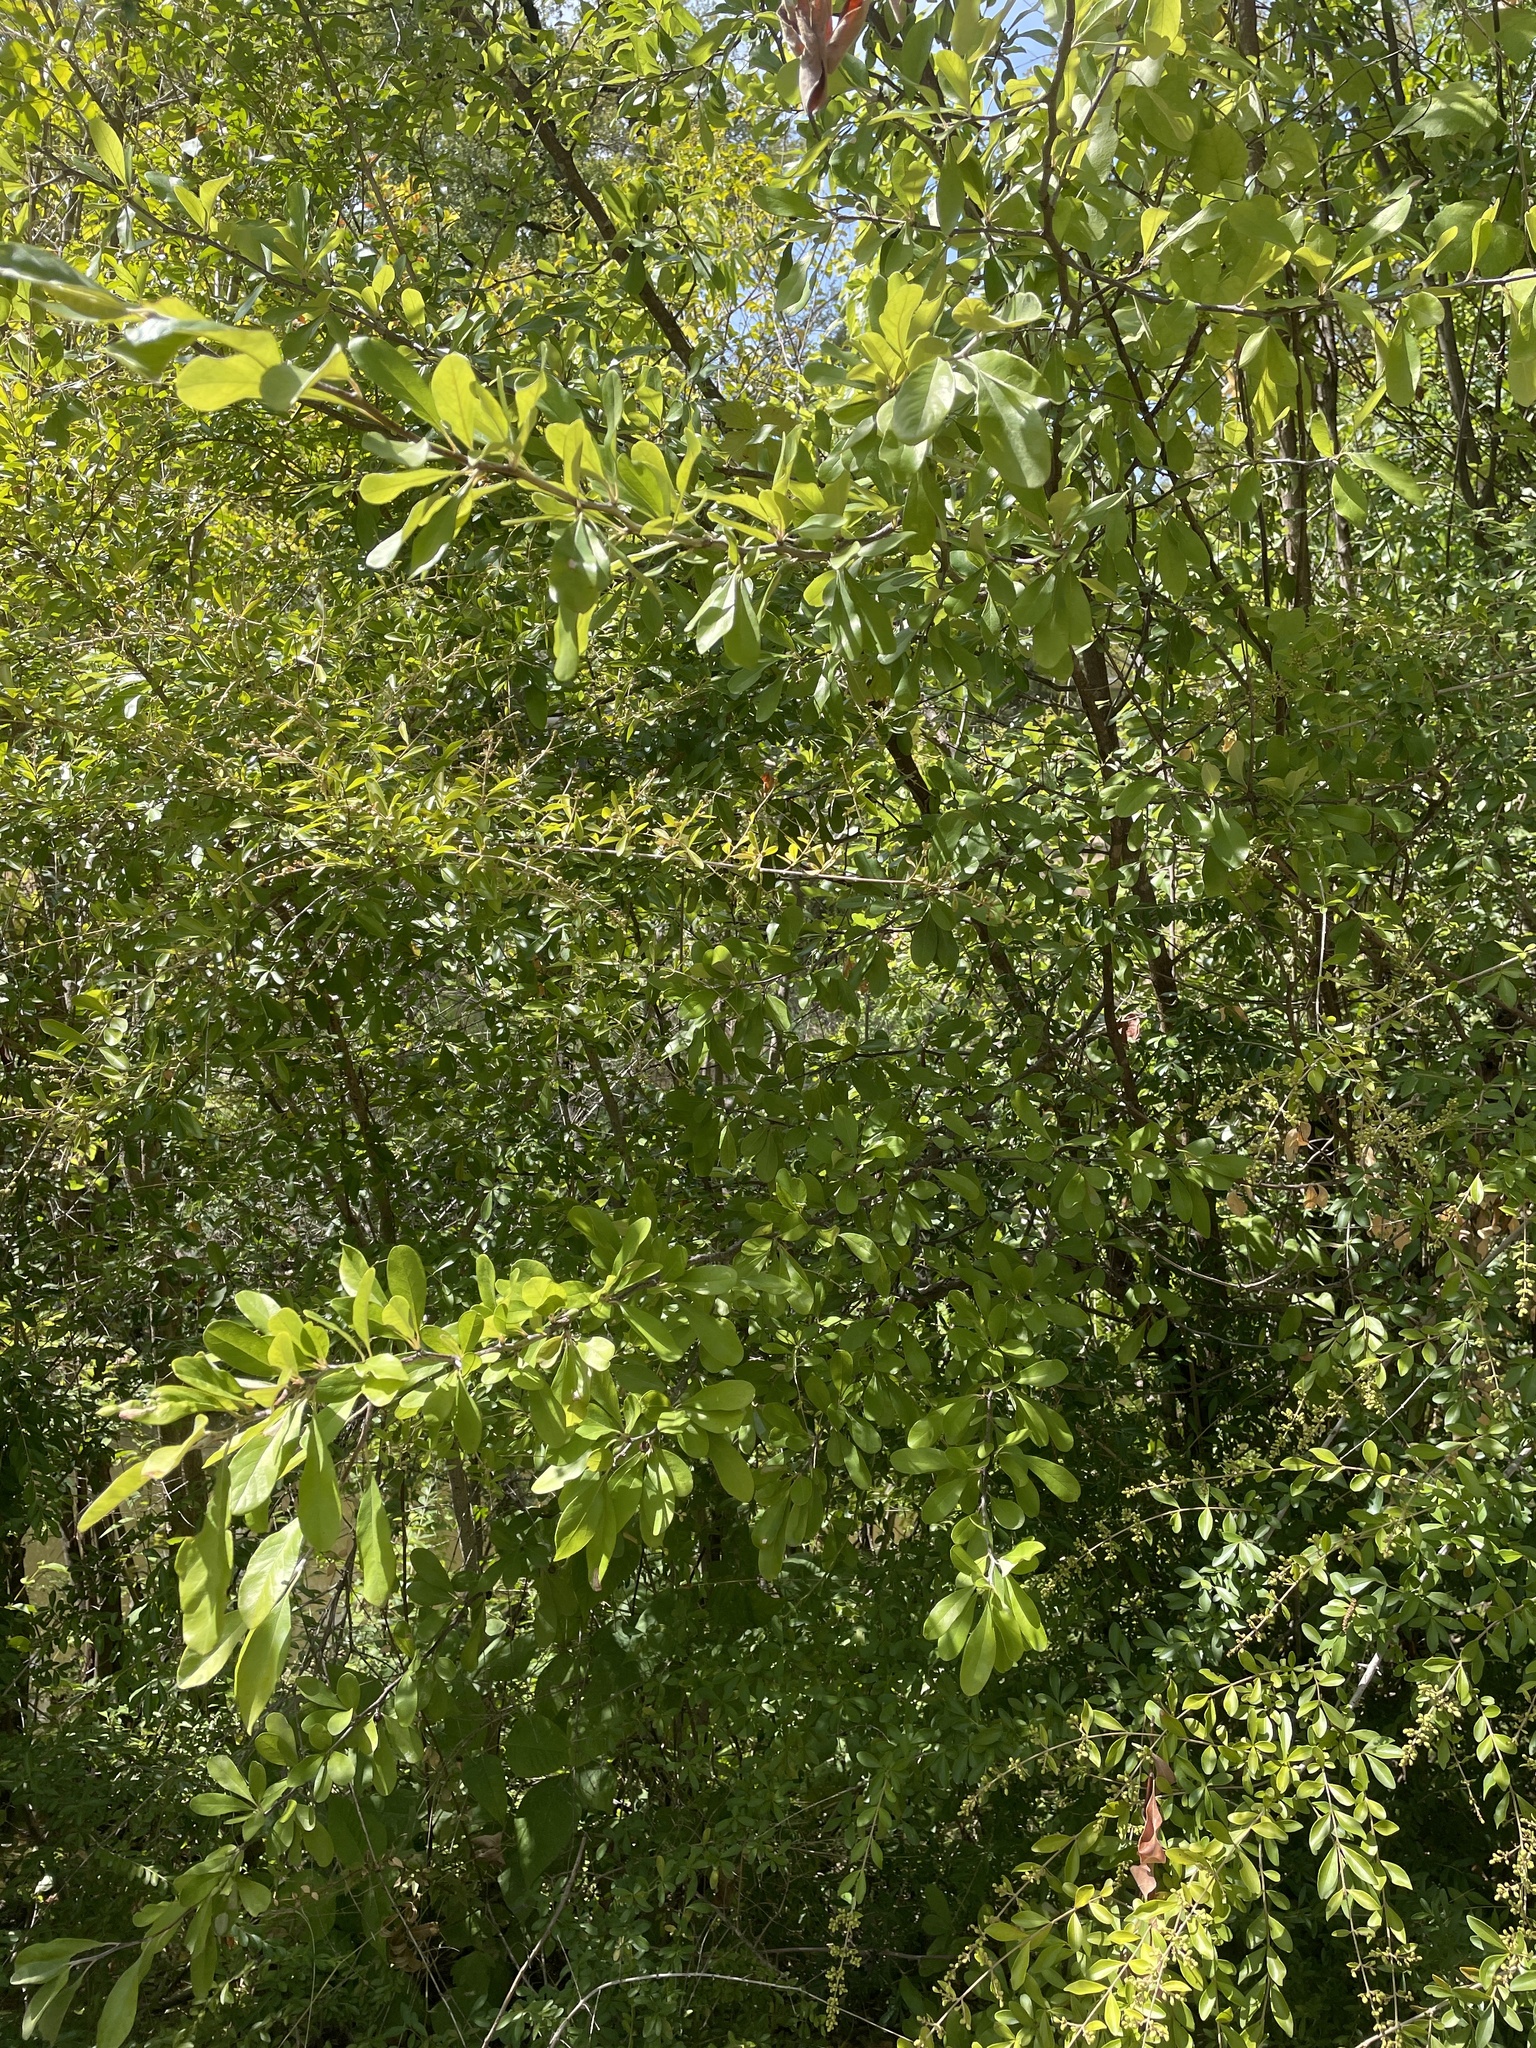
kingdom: Plantae
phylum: Tracheophyta
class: Magnoliopsida
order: Ericales
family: Sapotaceae
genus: Sideroxylon
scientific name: Sideroxylon lanuginosum
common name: Chittamwood
